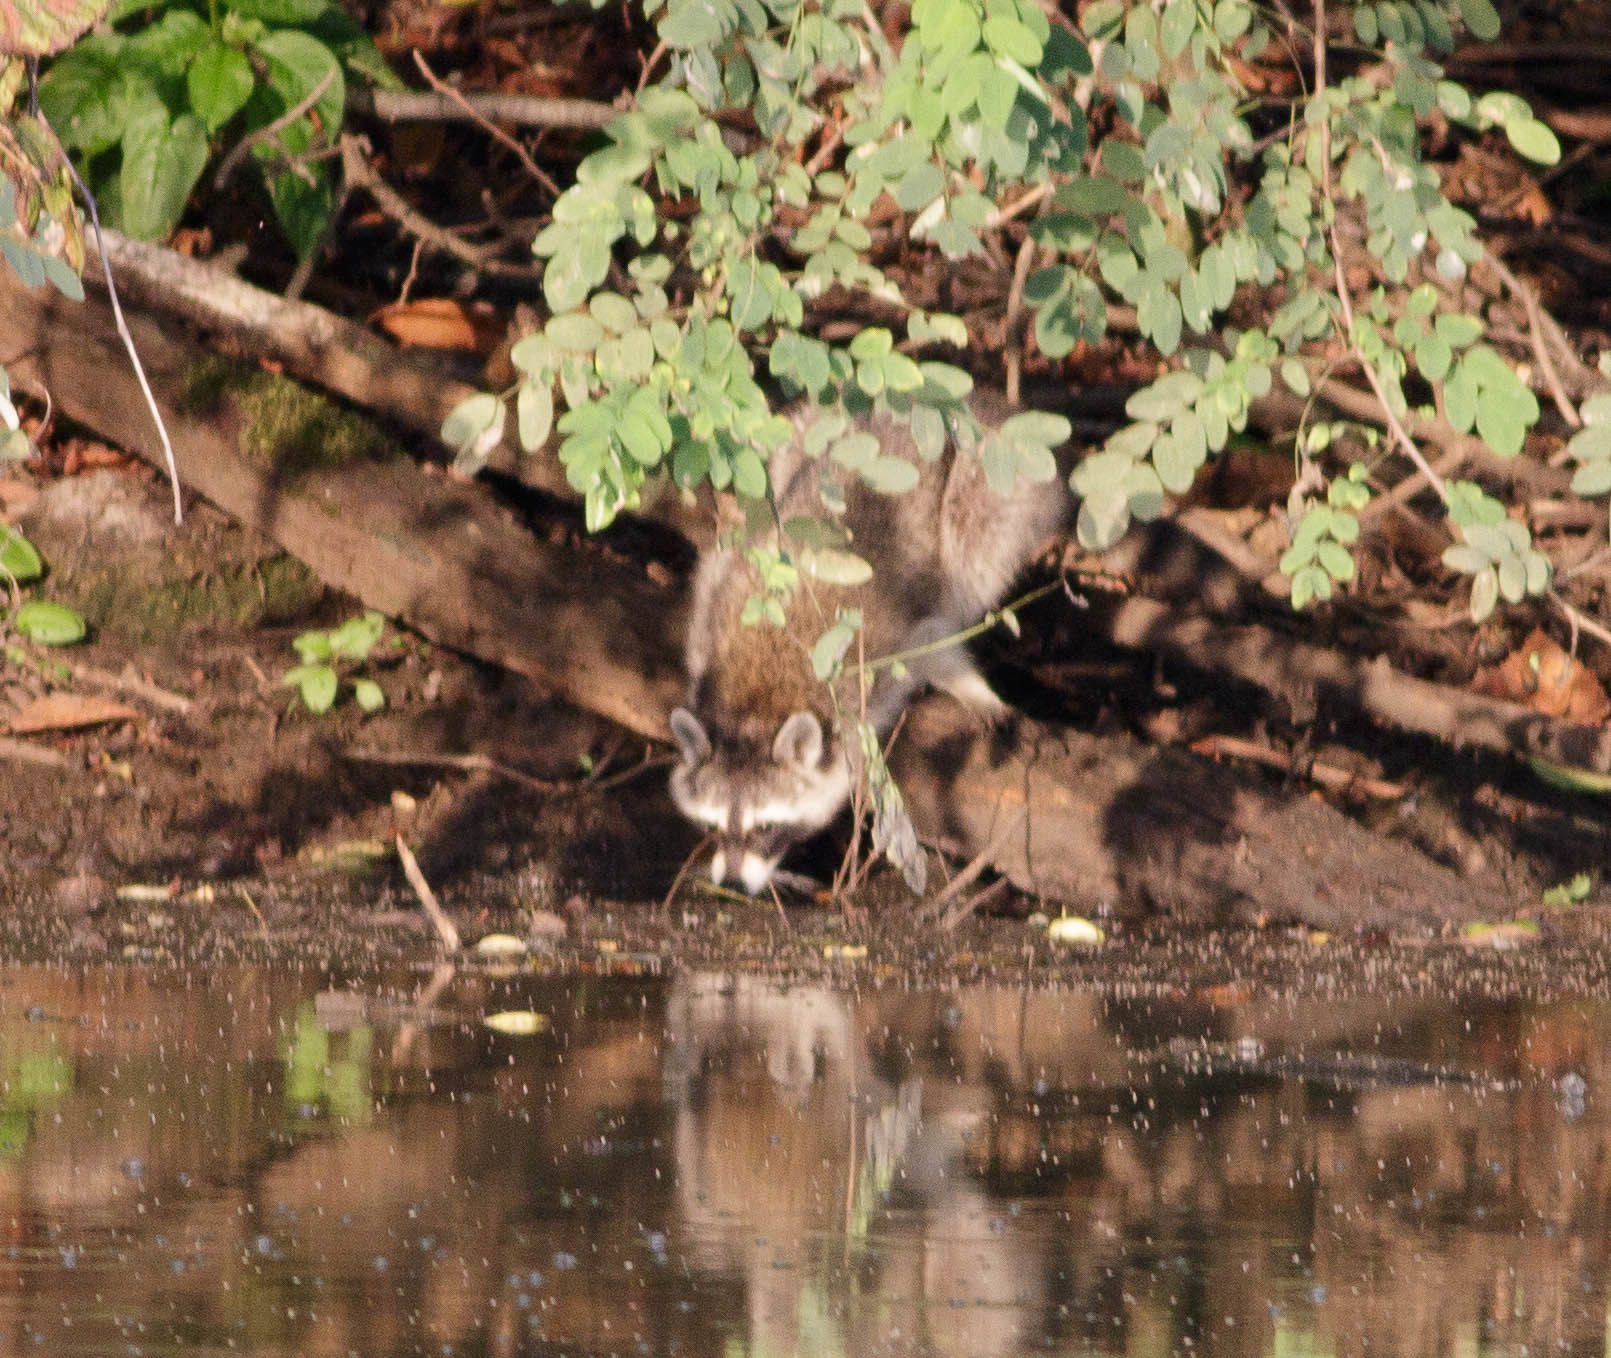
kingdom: Animalia
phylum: Chordata
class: Mammalia
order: Carnivora
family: Procyonidae
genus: Procyon
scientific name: Procyon lotor
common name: Raccoon
